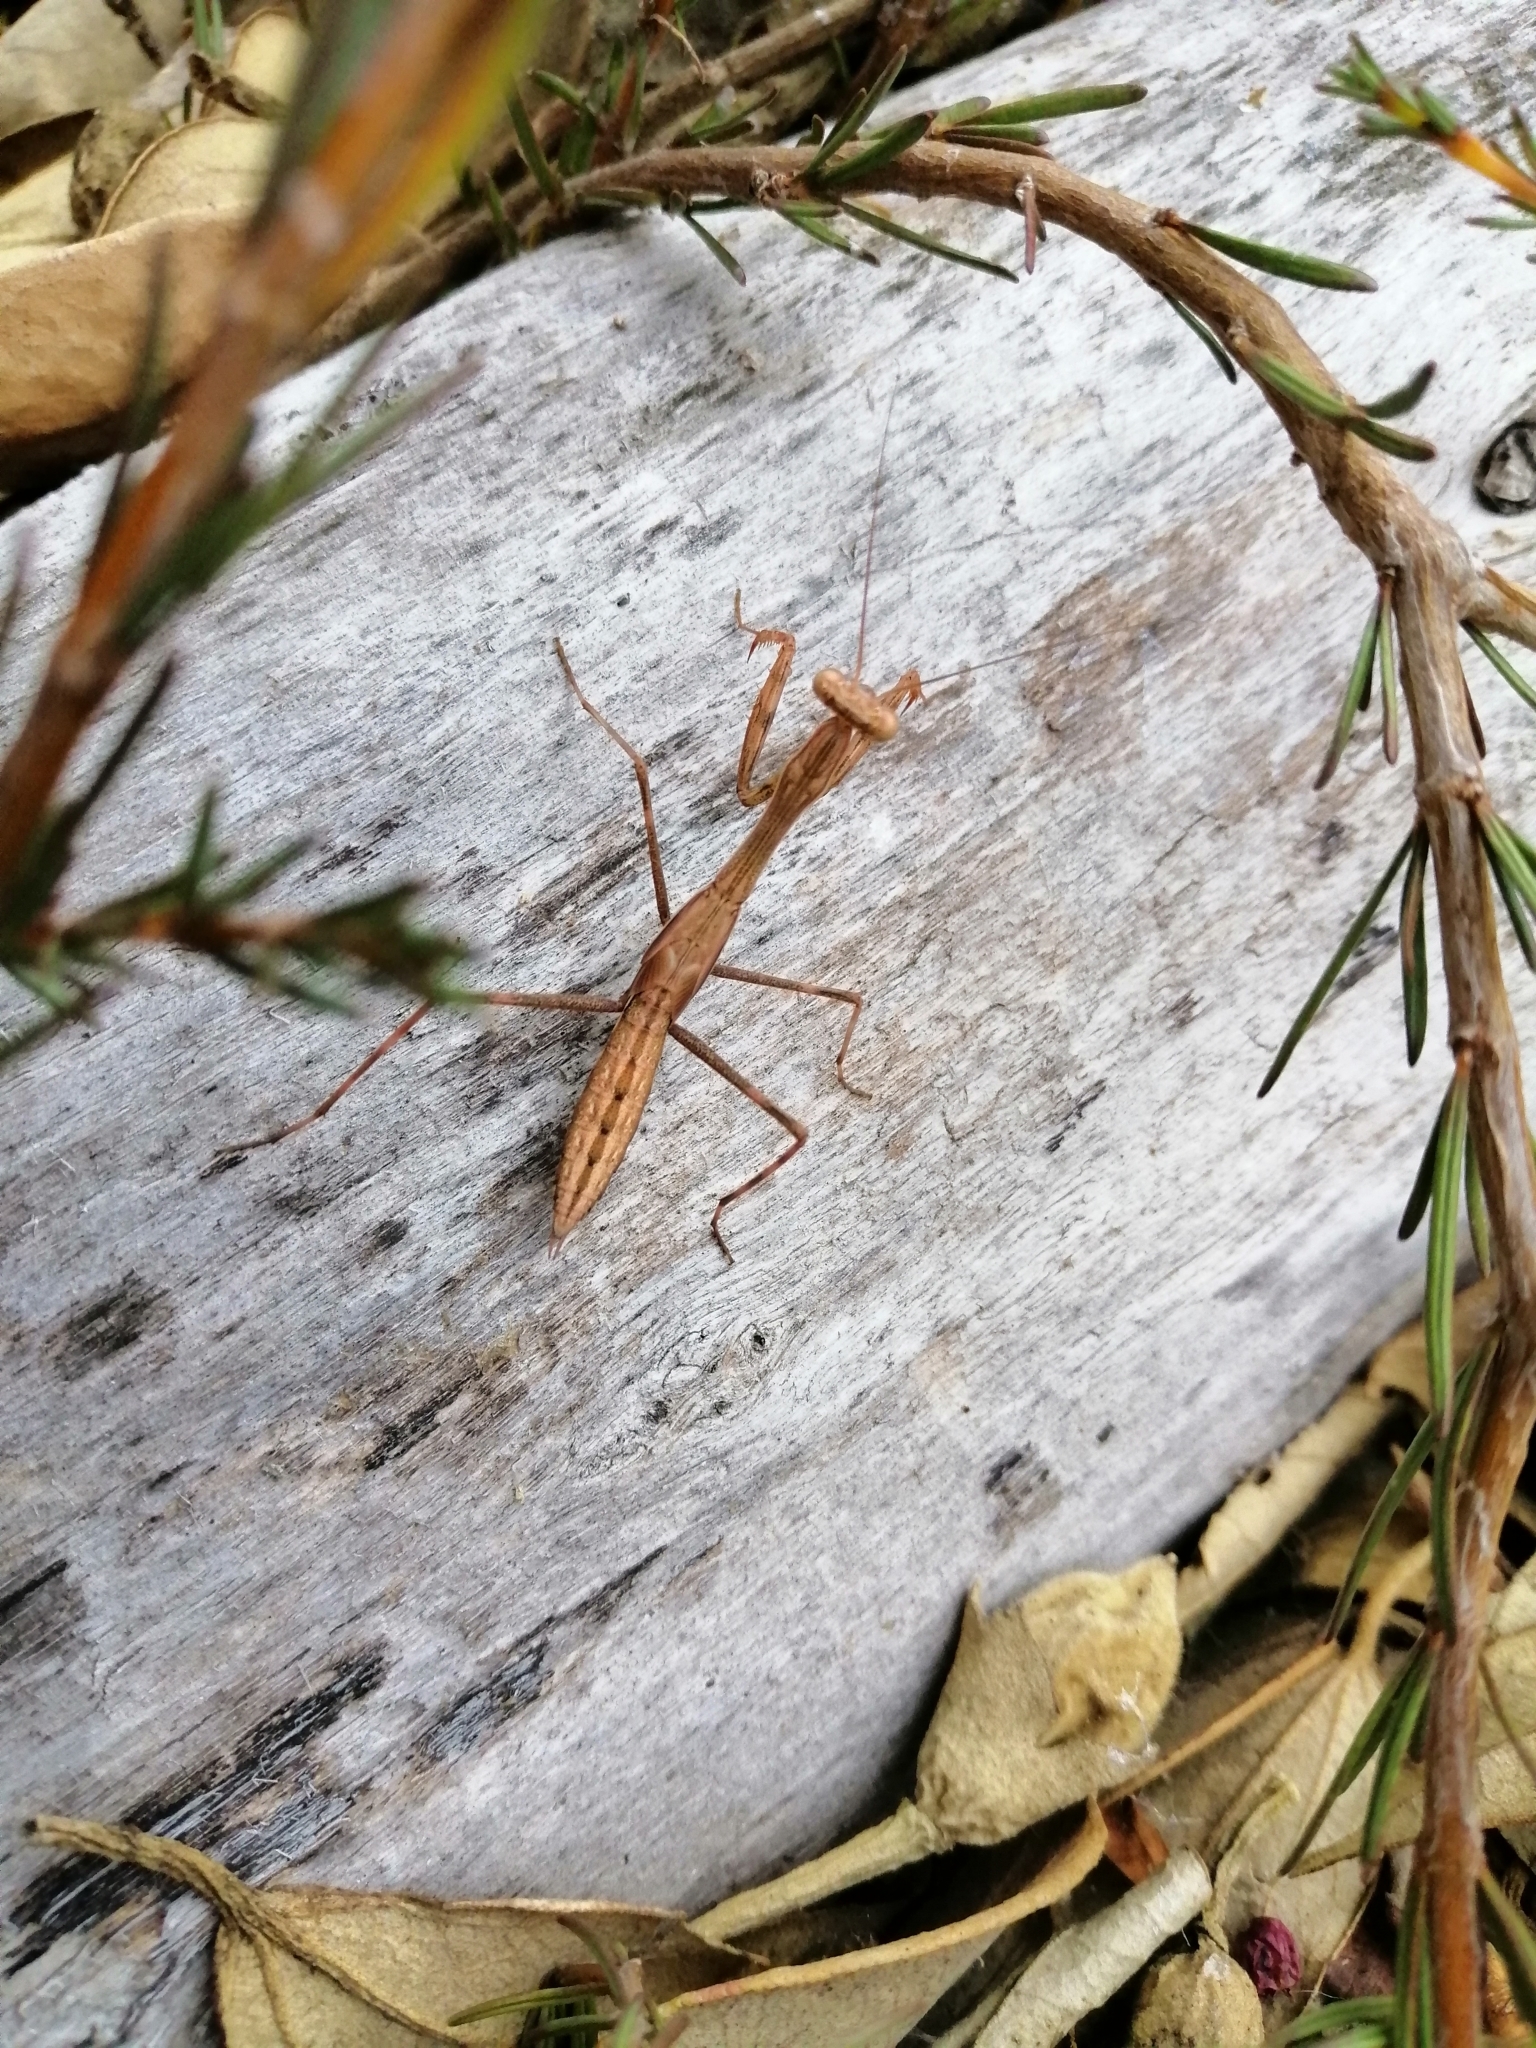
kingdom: Animalia
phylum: Arthropoda
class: Insecta
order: Mantodea
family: Miomantidae
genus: Miomantis
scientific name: Miomantis caffra
